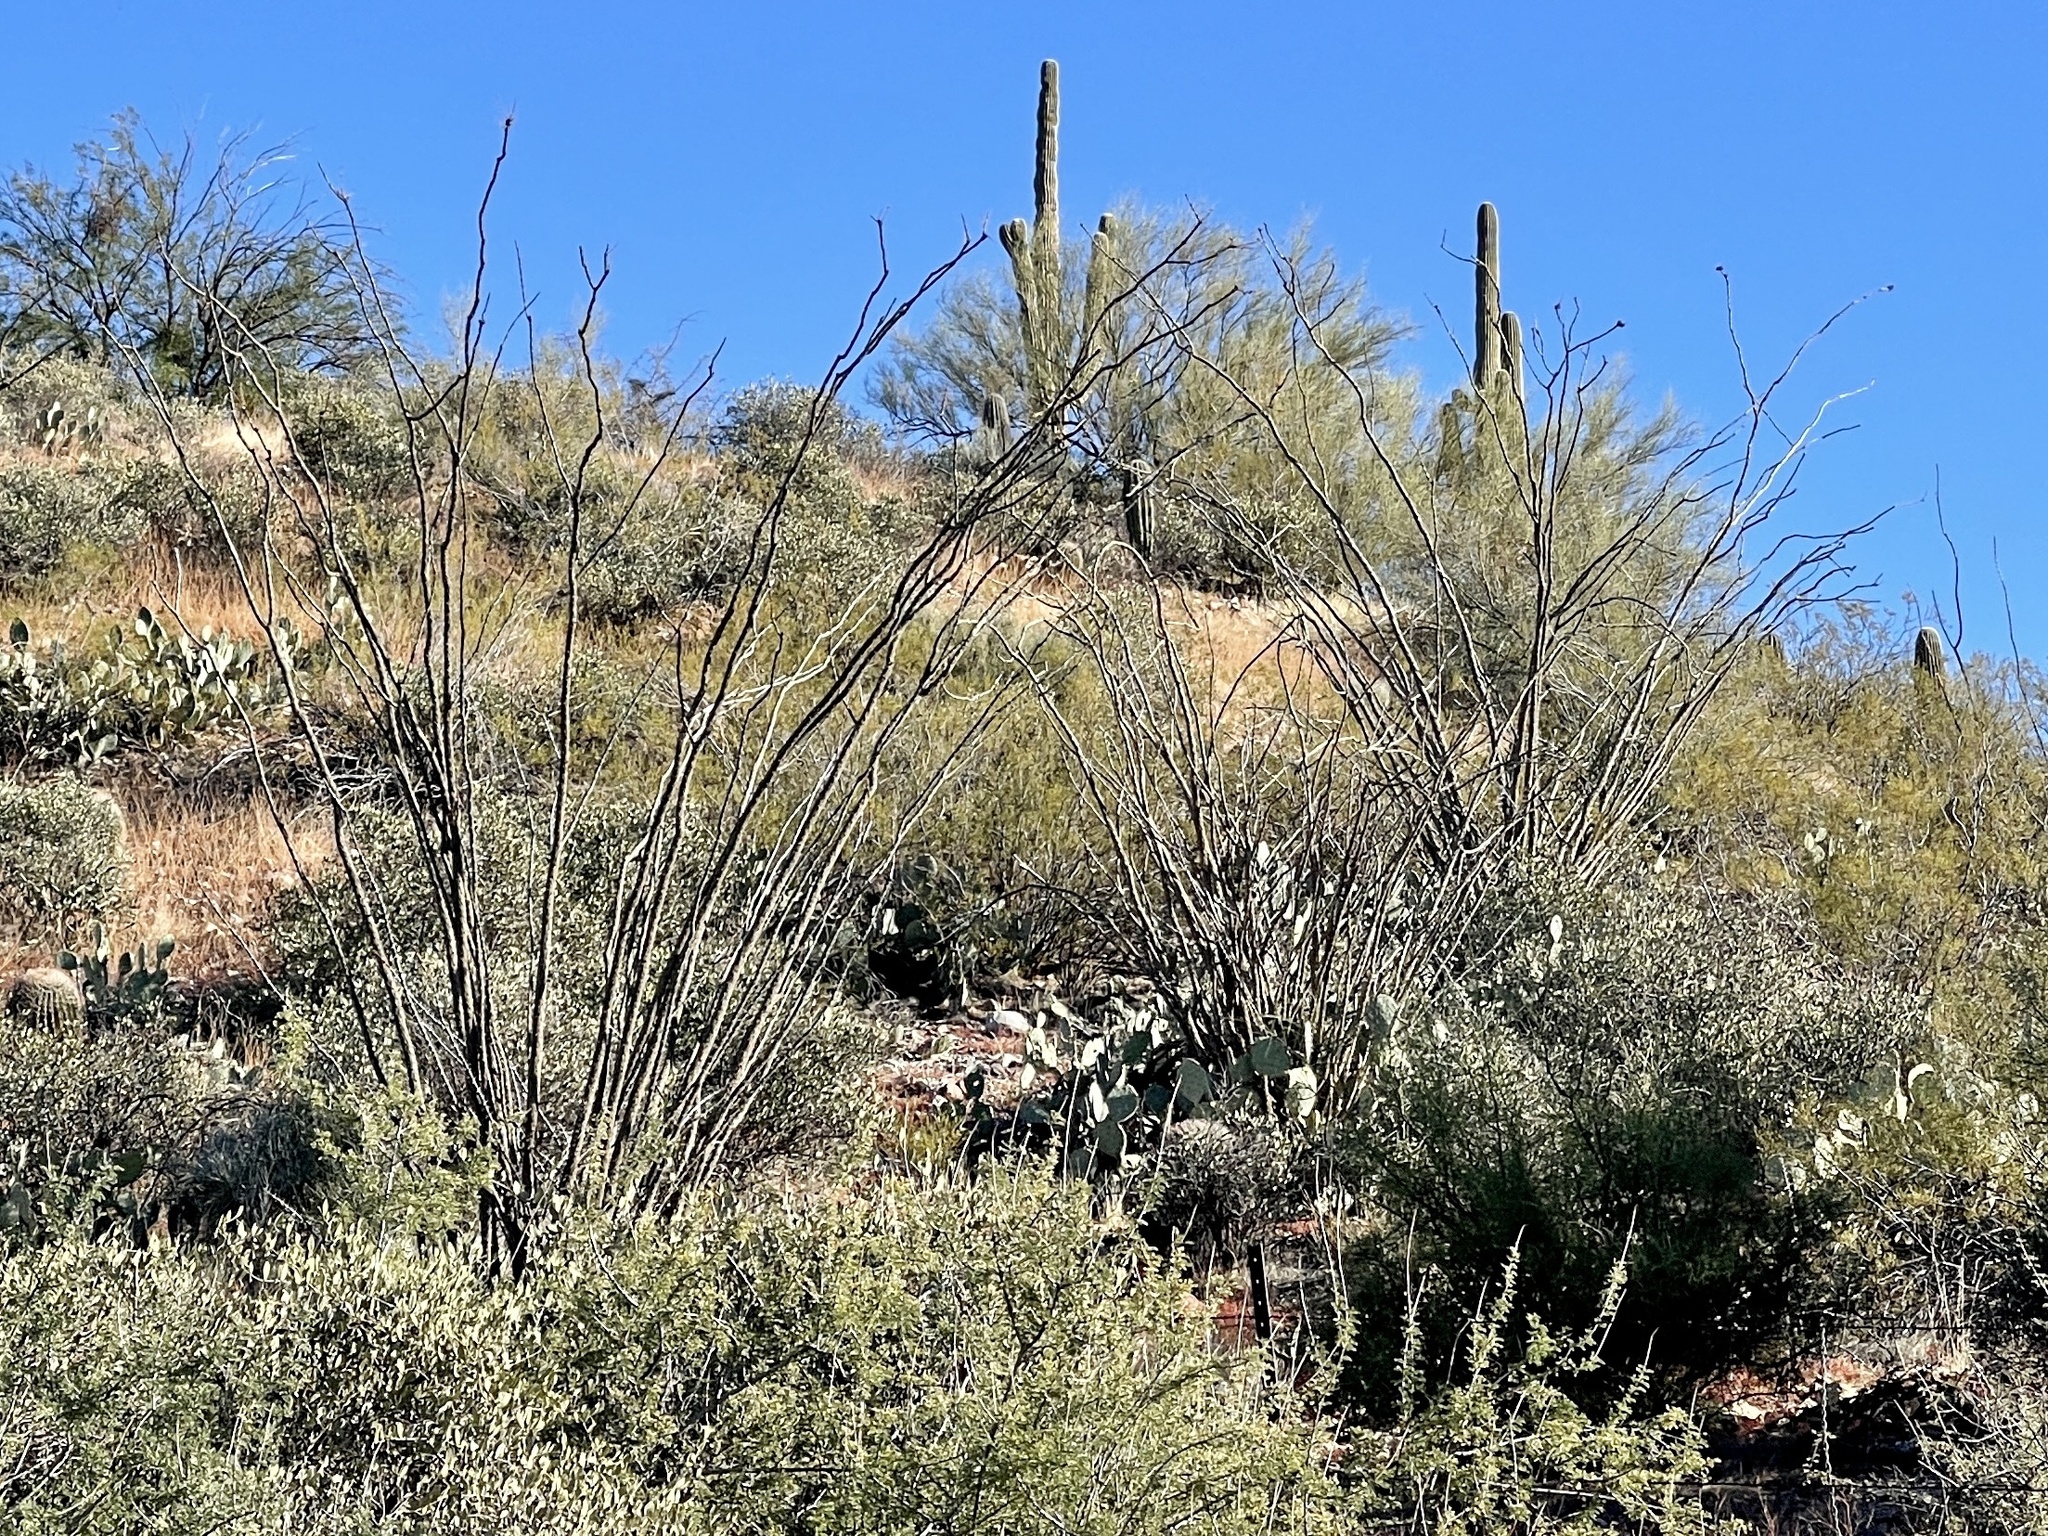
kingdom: Plantae
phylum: Tracheophyta
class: Magnoliopsida
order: Ericales
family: Fouquieriaceae
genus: Fouquieria
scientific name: Fouquieria splendens
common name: Vine-cactus
